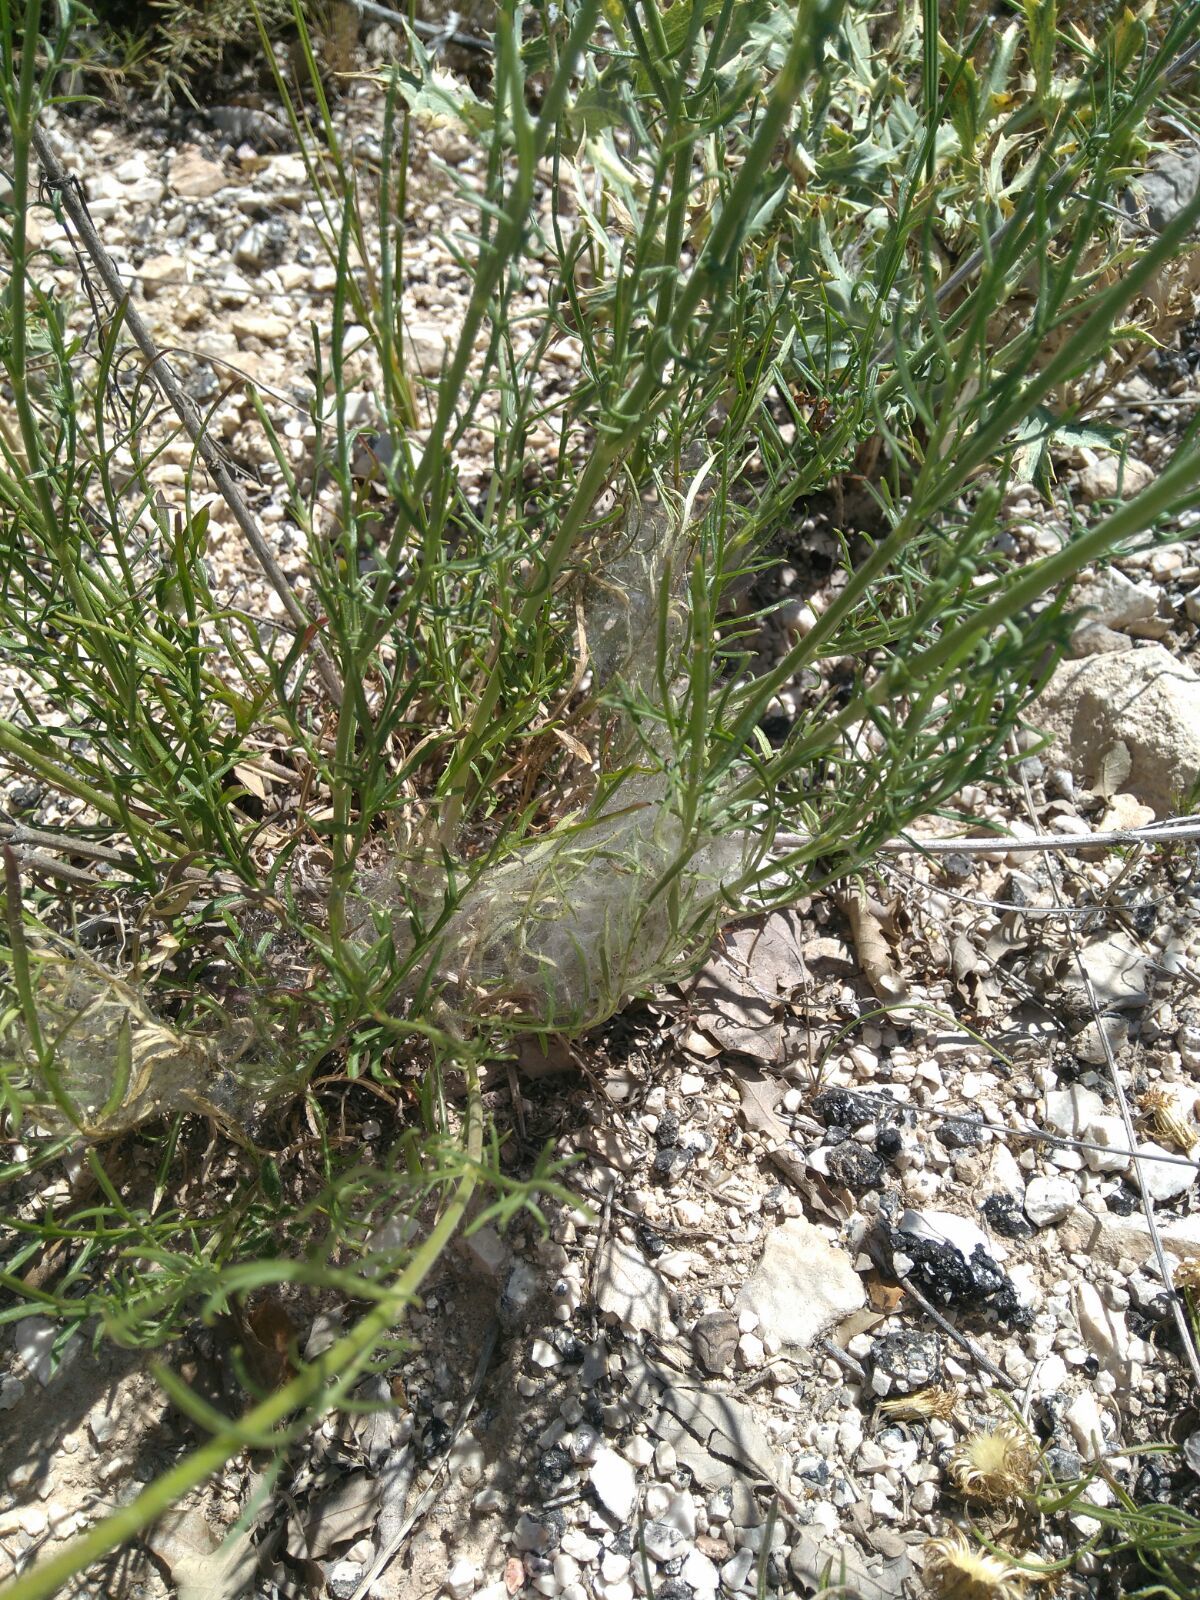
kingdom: Animalia
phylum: Arthropoda
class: Insecta
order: Lepidoptera
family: Nymphalidae
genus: Euphydryas
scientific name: Euphydryas desfontainii
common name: Spanish fritillary
